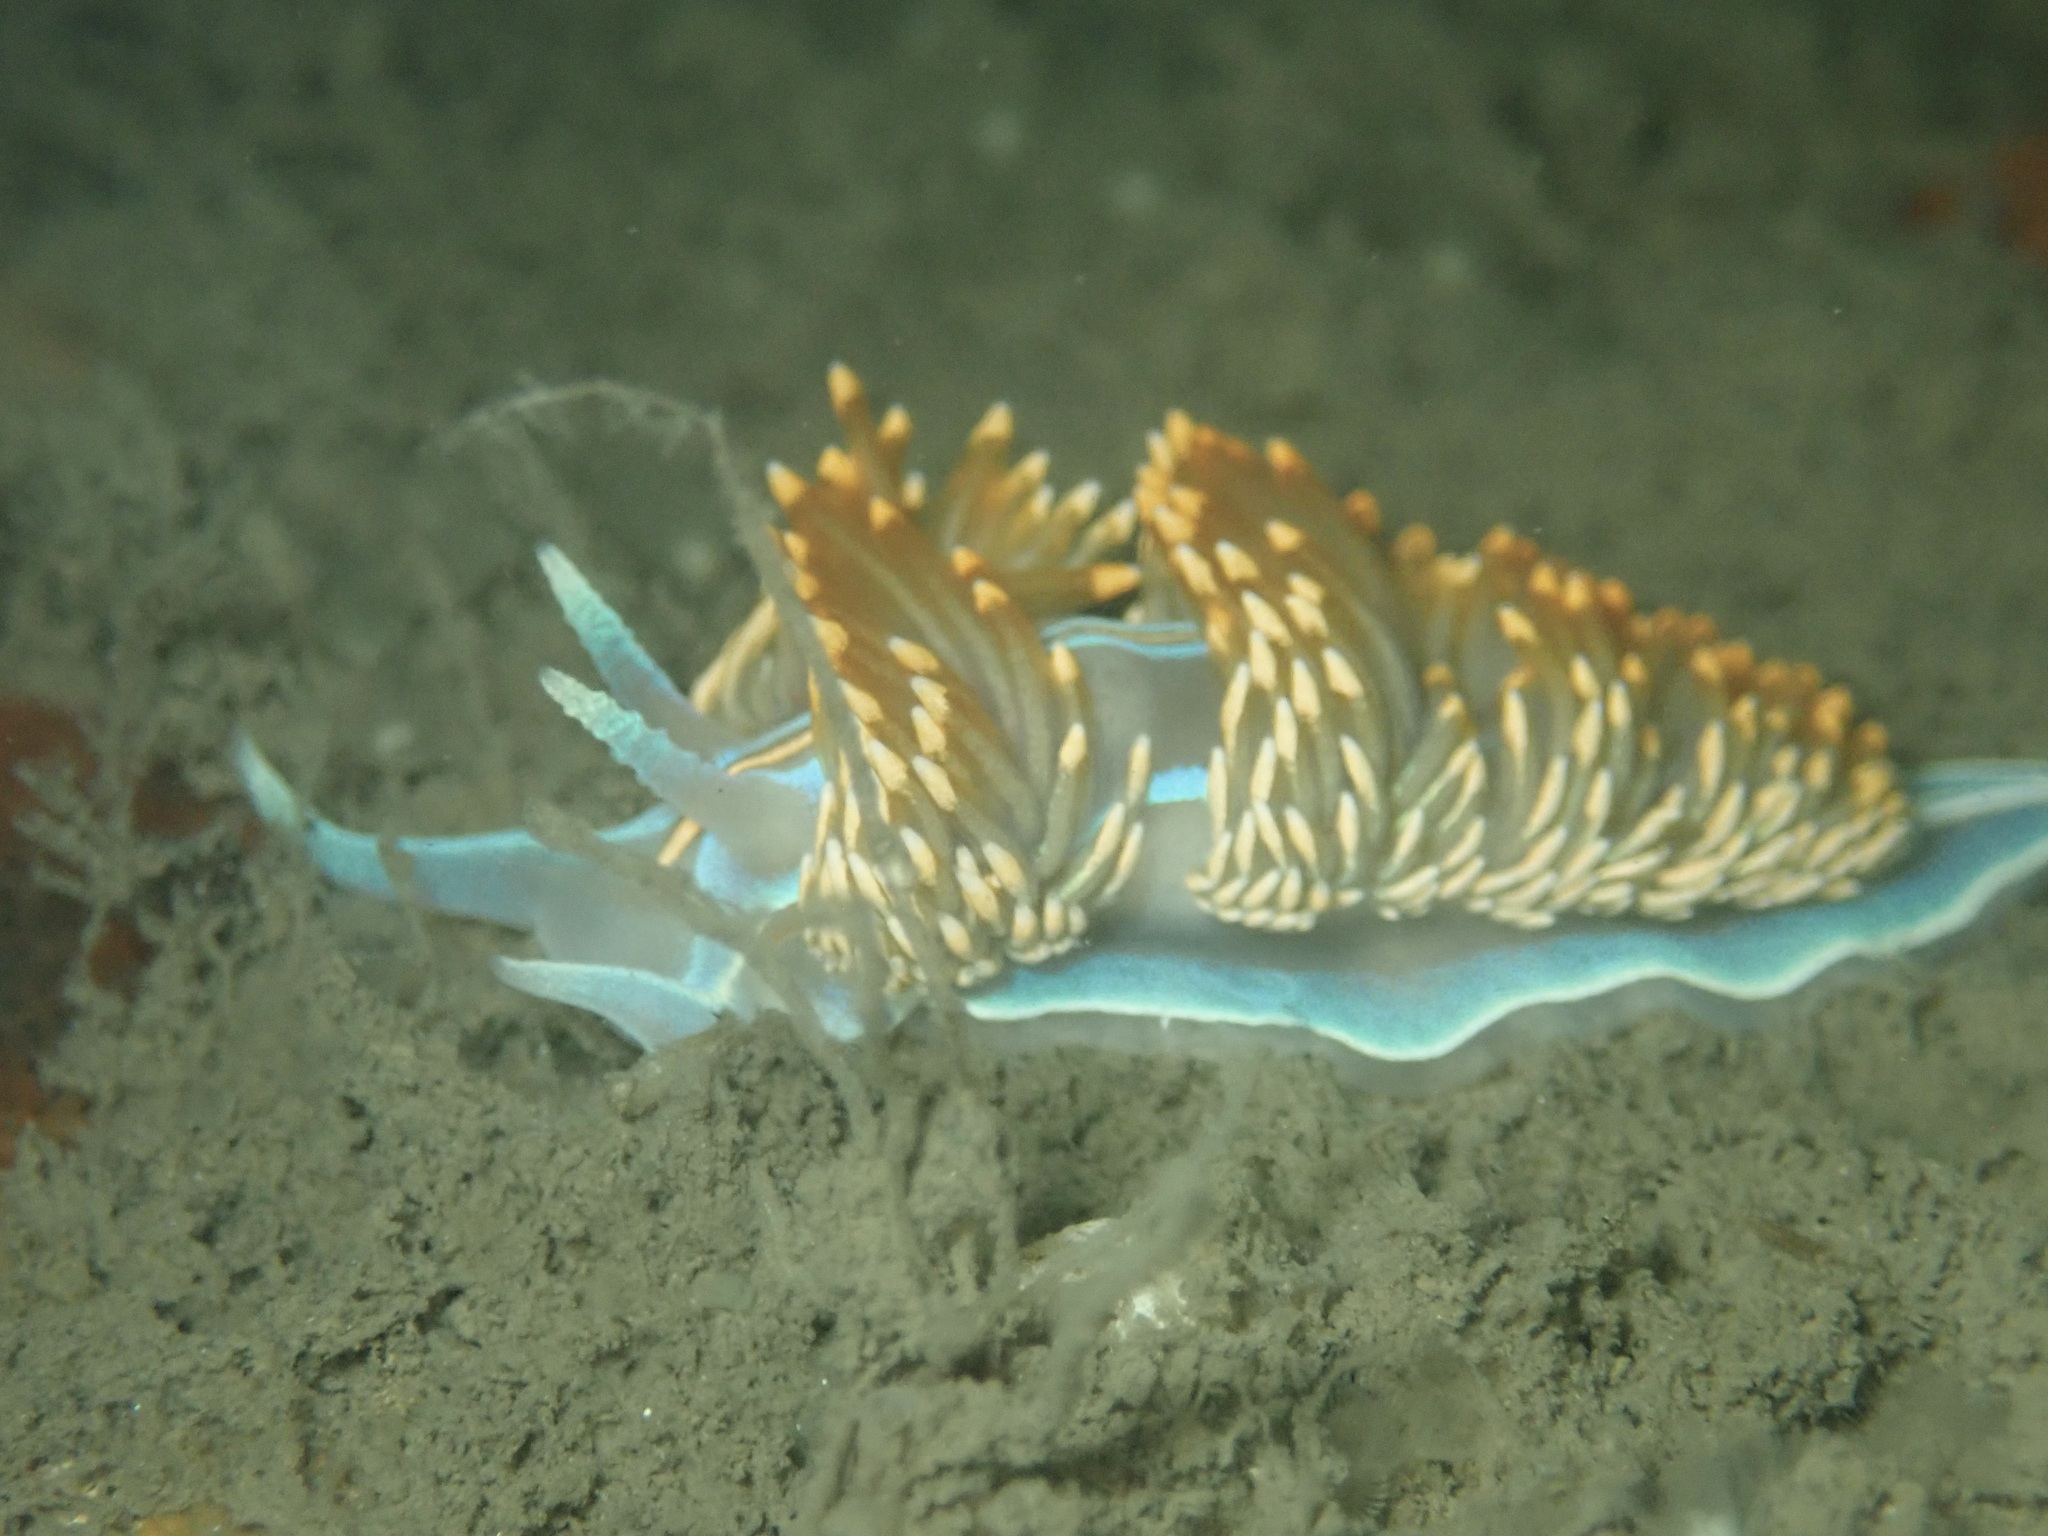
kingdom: Animalia
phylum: Mollusca
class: Gastropoda
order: Nudibranchia
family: Myrrhinidae
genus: Hermissenda
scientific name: Hermissenda opalescens
